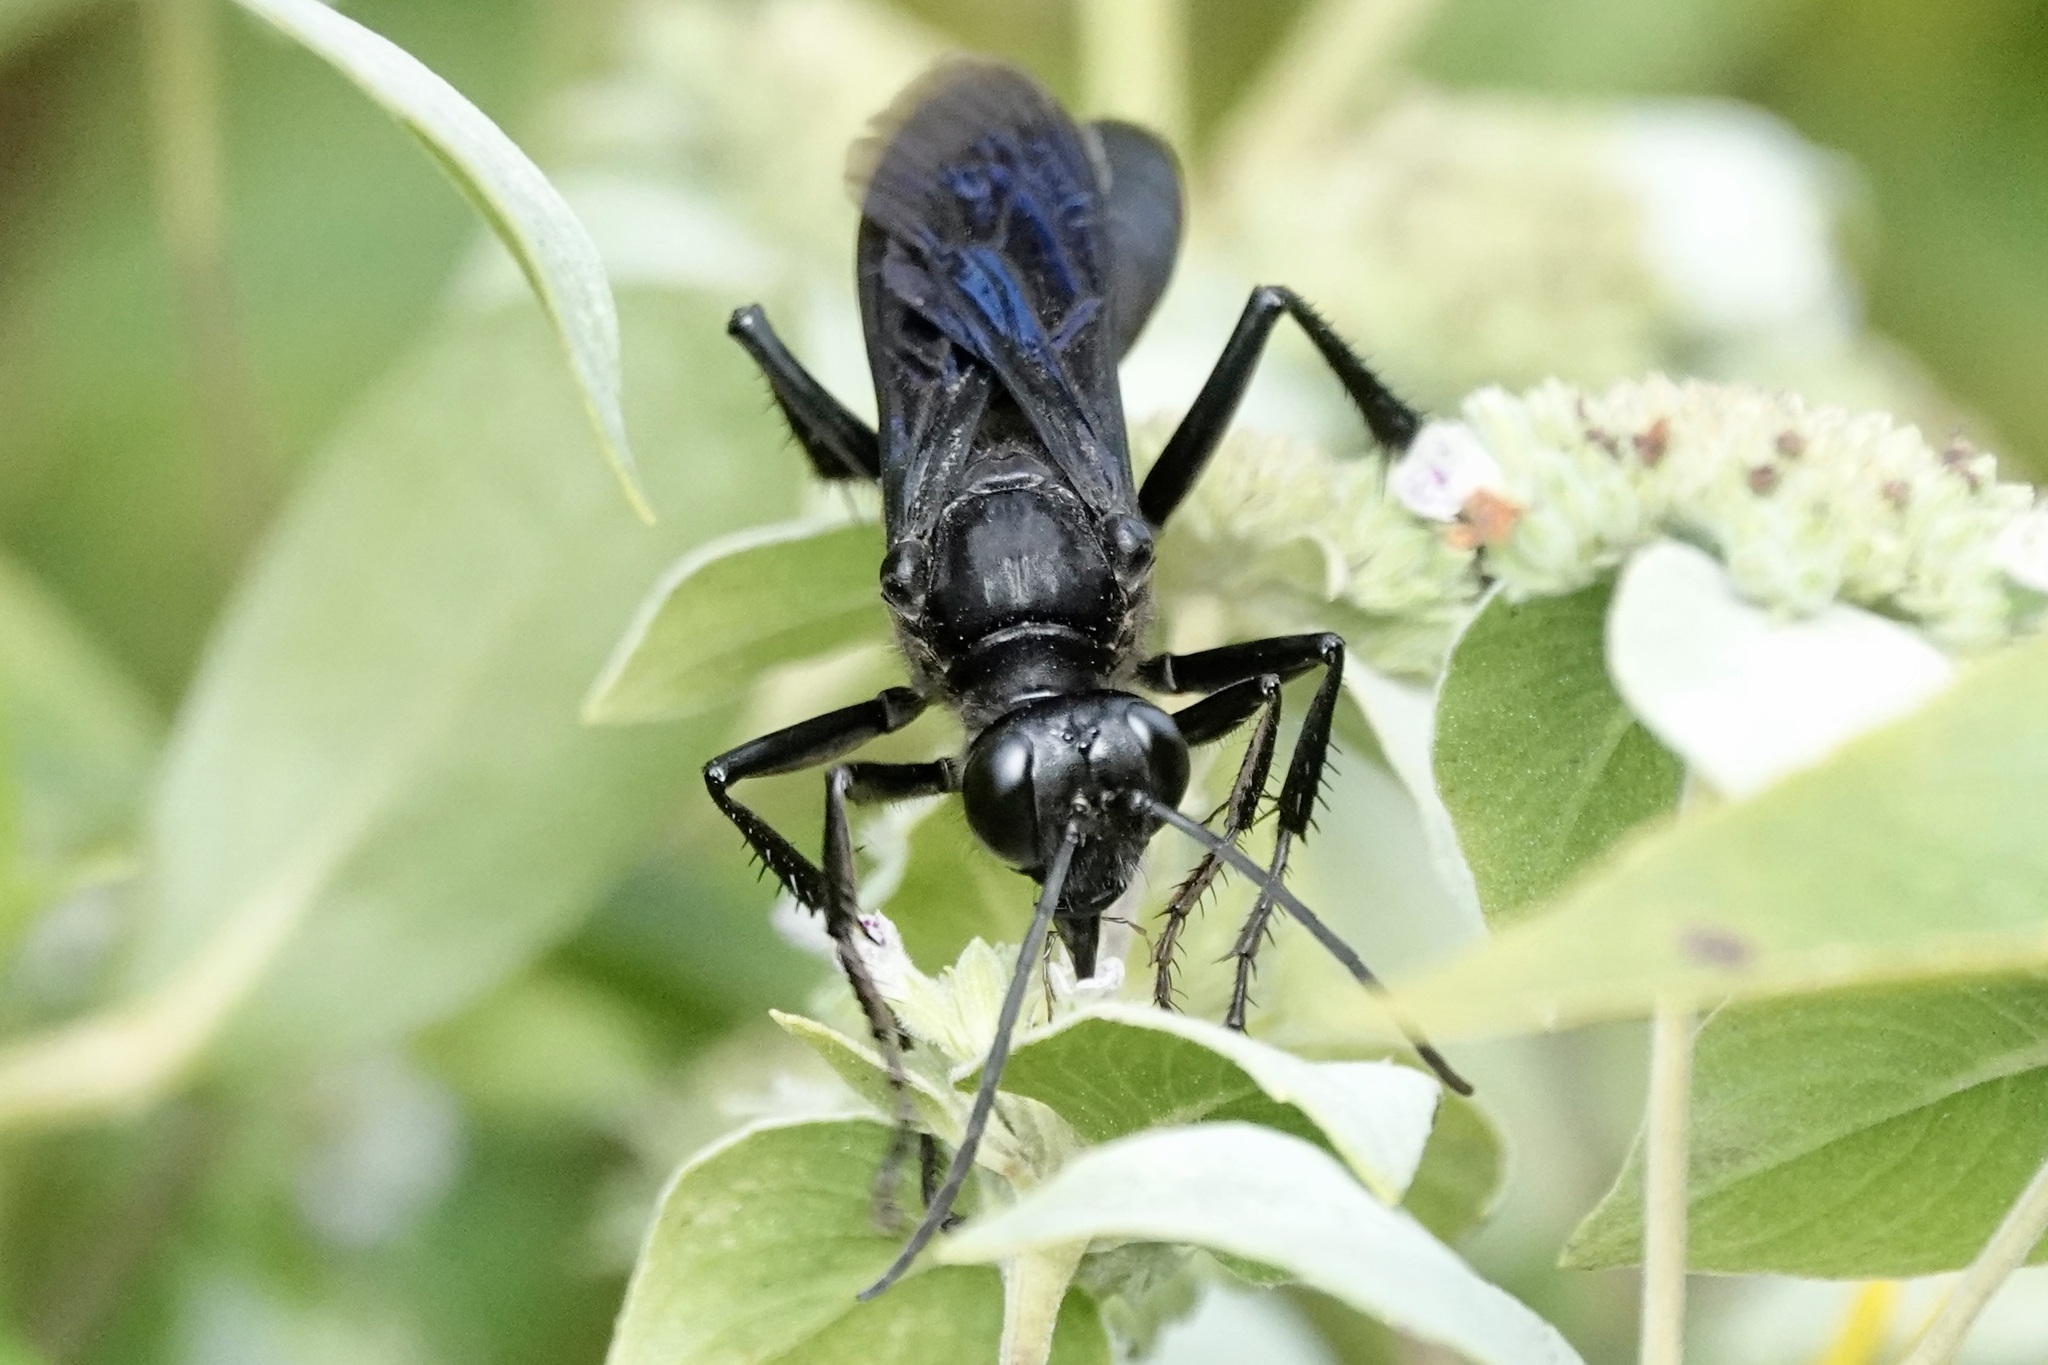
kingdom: Animalia
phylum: Arthropoda
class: Insecta
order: Hymenoptera
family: Sphecidae
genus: Sphex
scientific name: Sphex pensylvanicus
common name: Great black digger wasp
